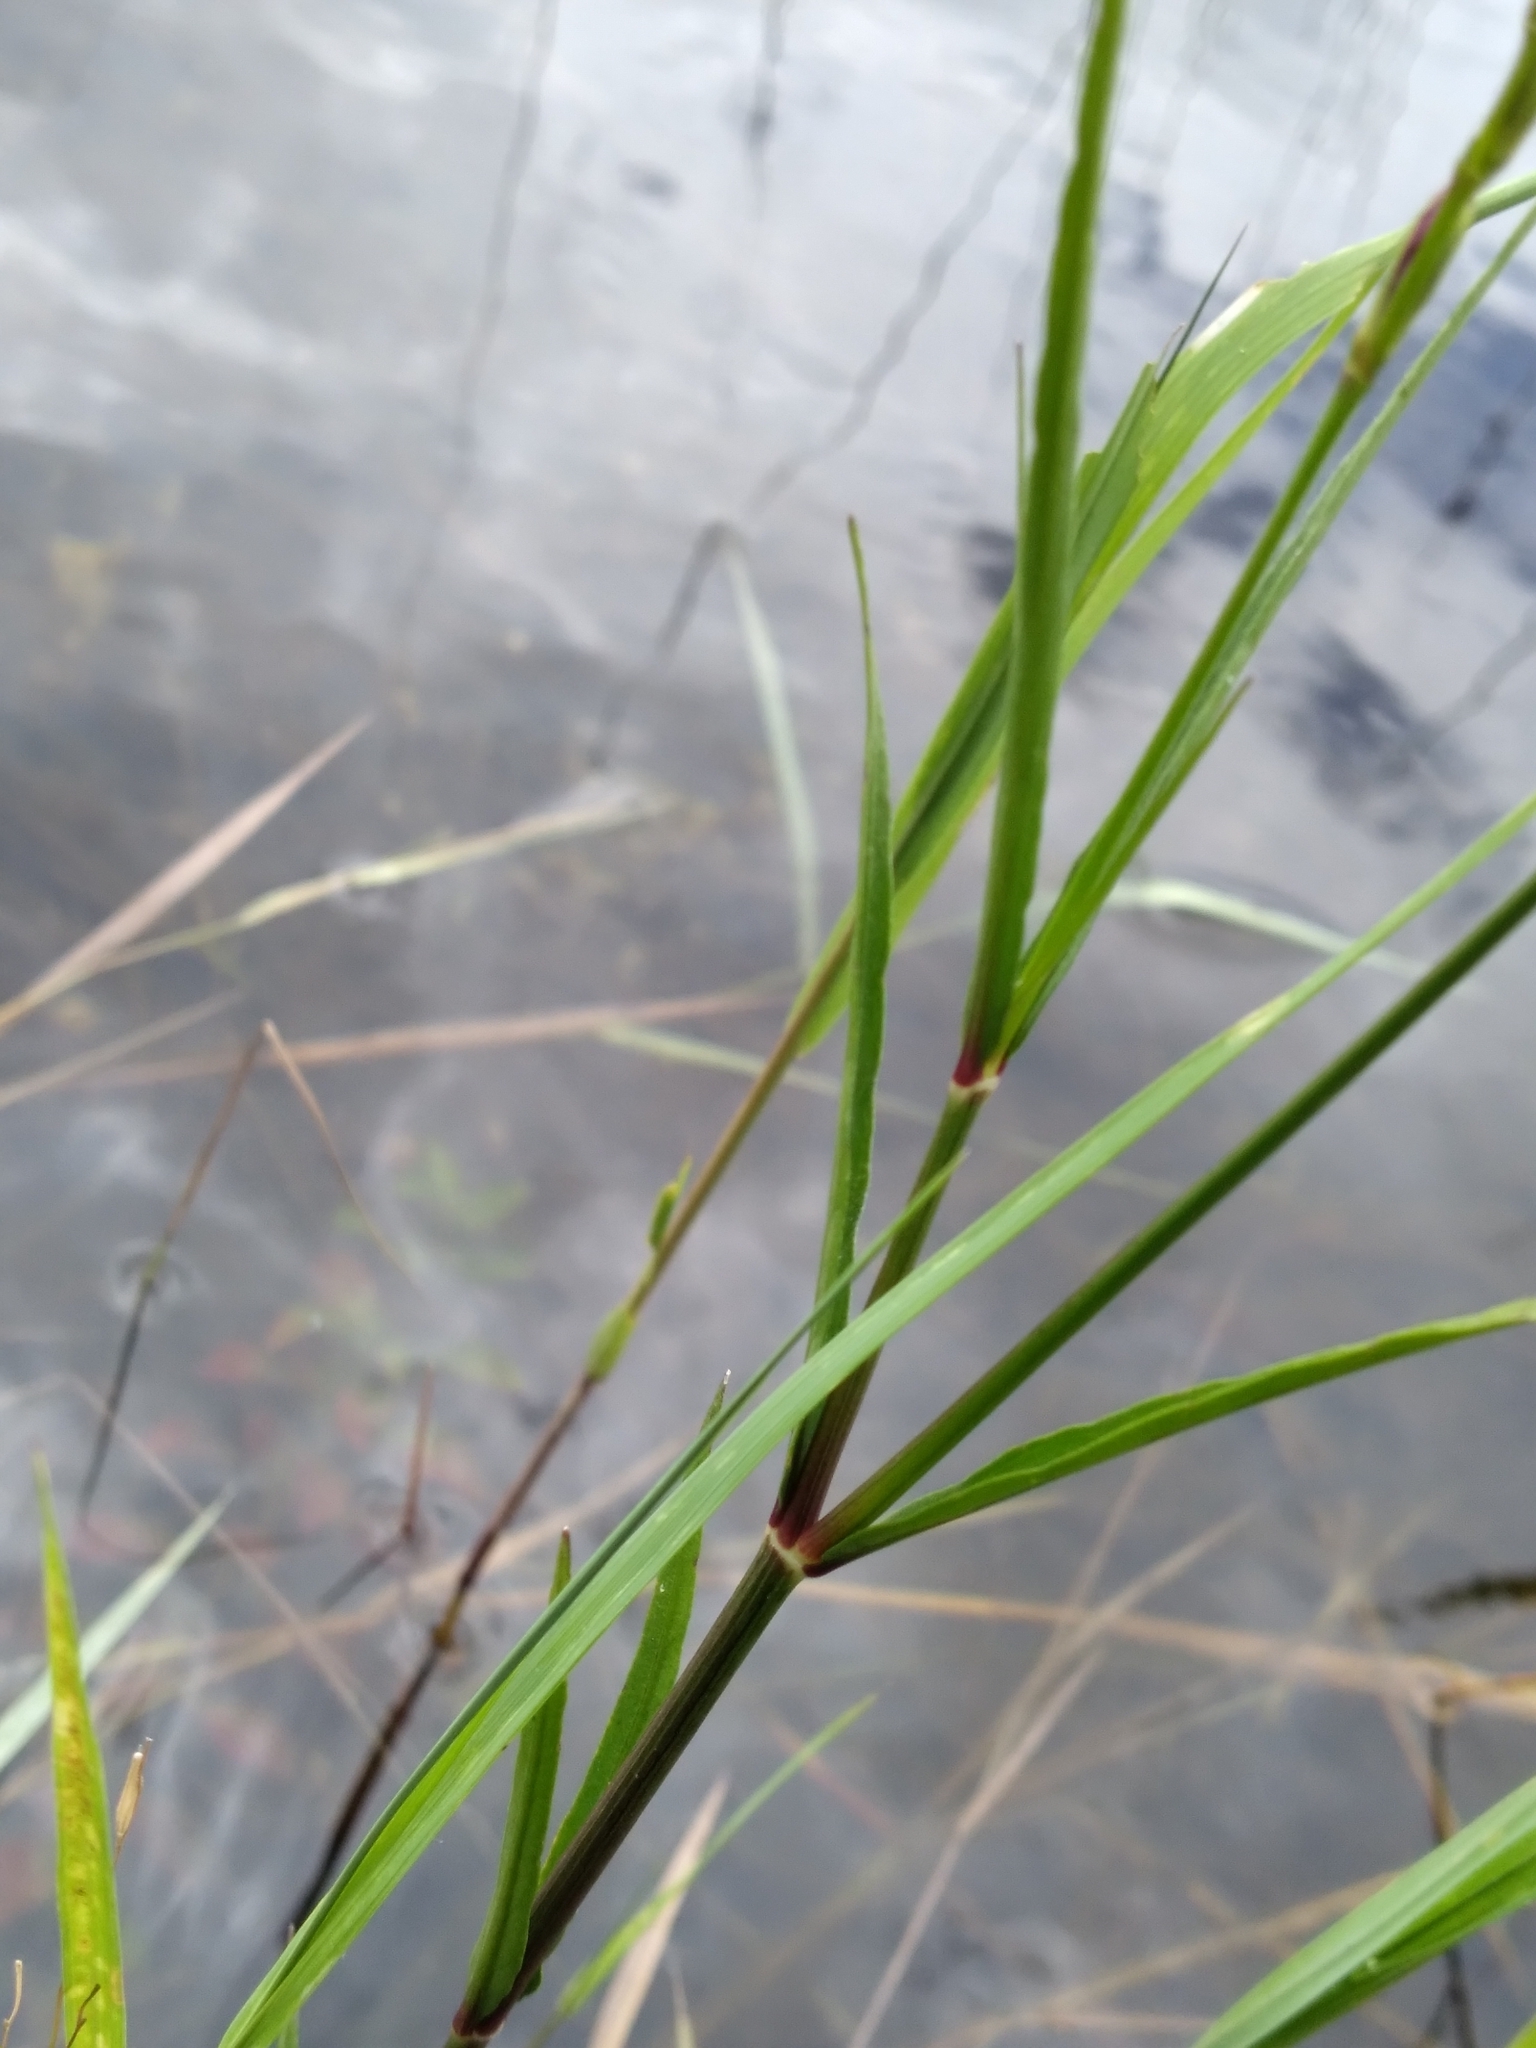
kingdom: Plantae
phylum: Tracheophyta
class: Magnoliopsida
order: Lamiales
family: Acanthaceae
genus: Dianthera
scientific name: Dianthera angusta
